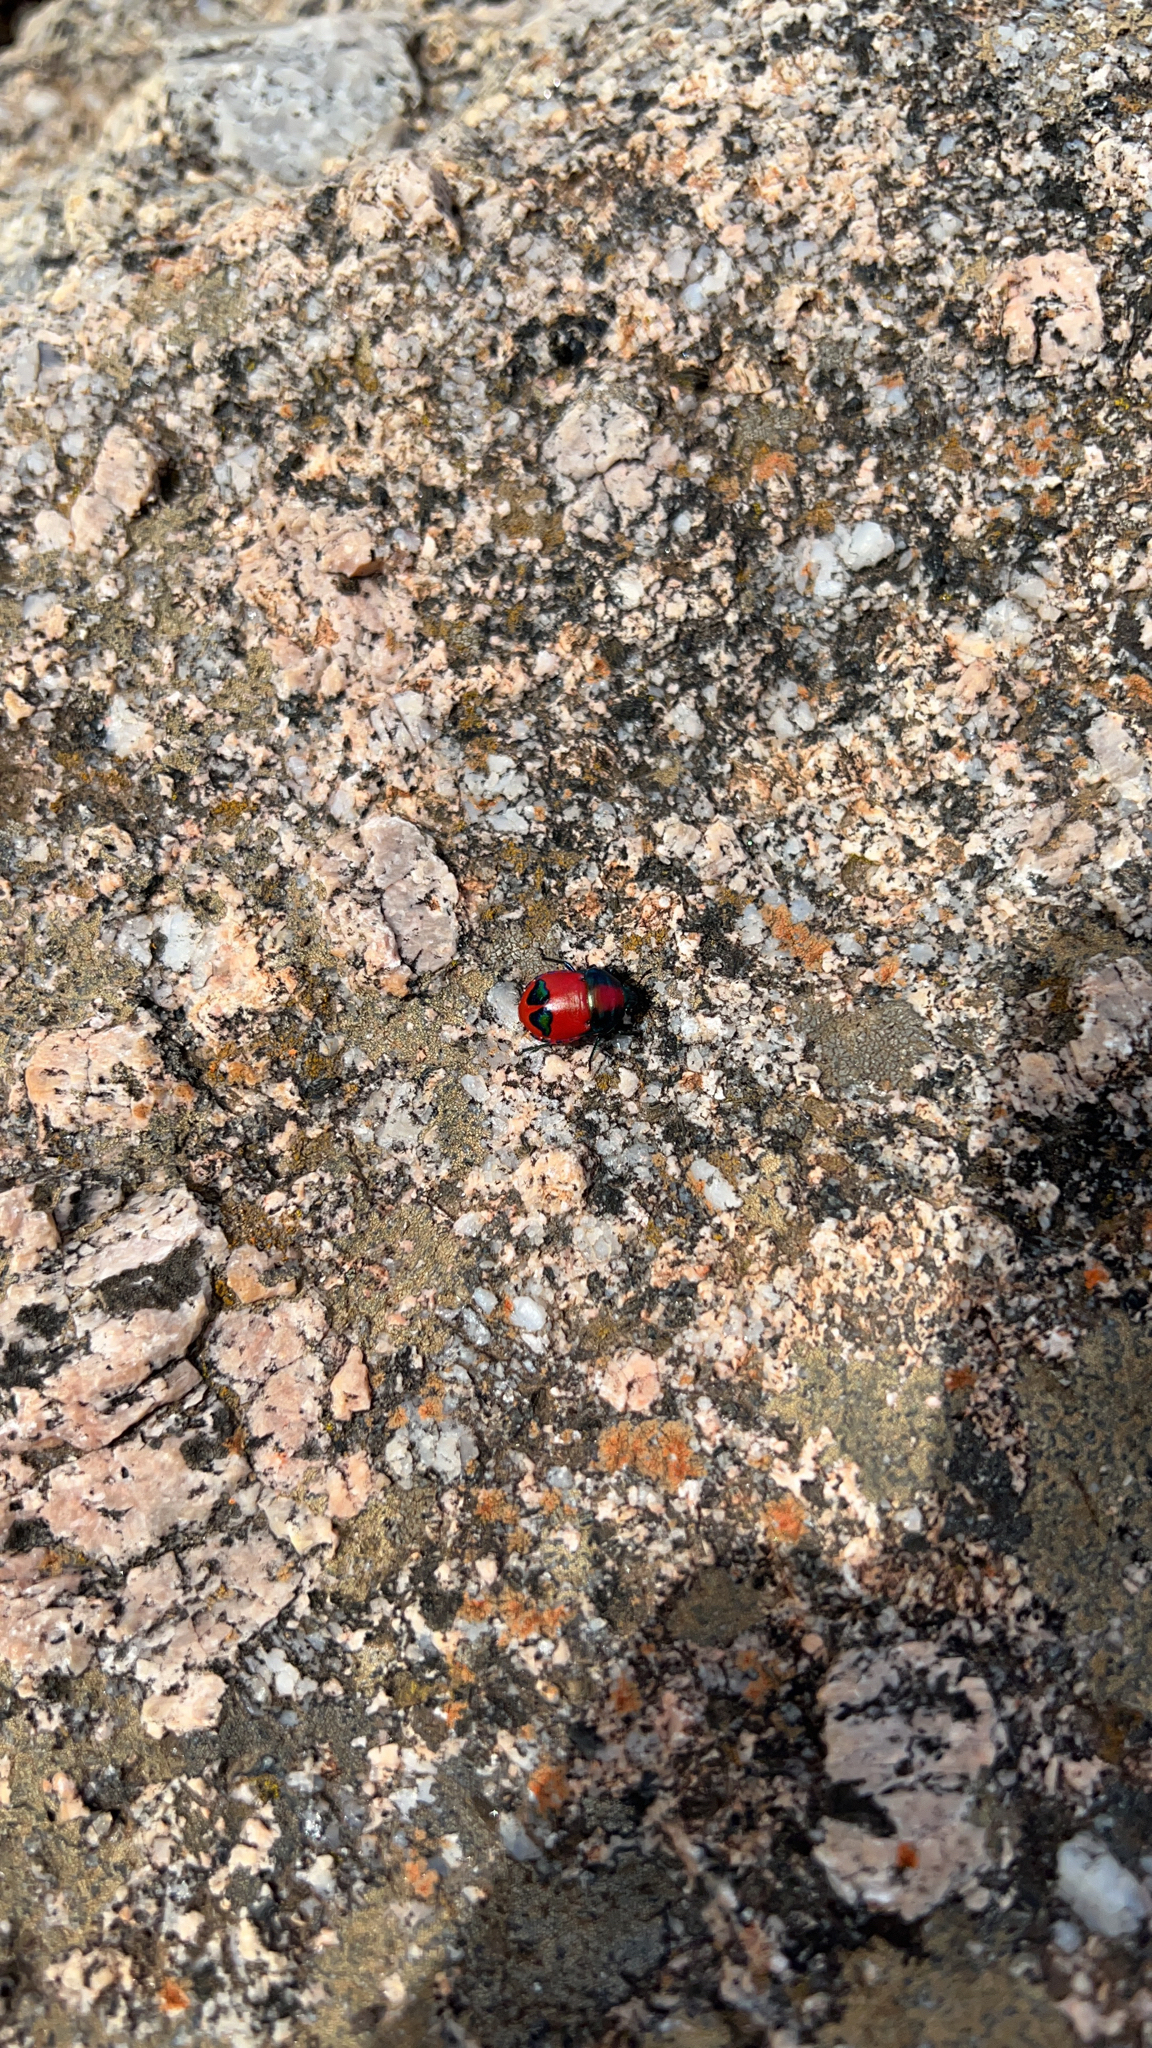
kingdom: Animalia
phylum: Arthropoda
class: Insecta
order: Hemiptera
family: Scutelleridae
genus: Choerocoris
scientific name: Choerocoris paganus
